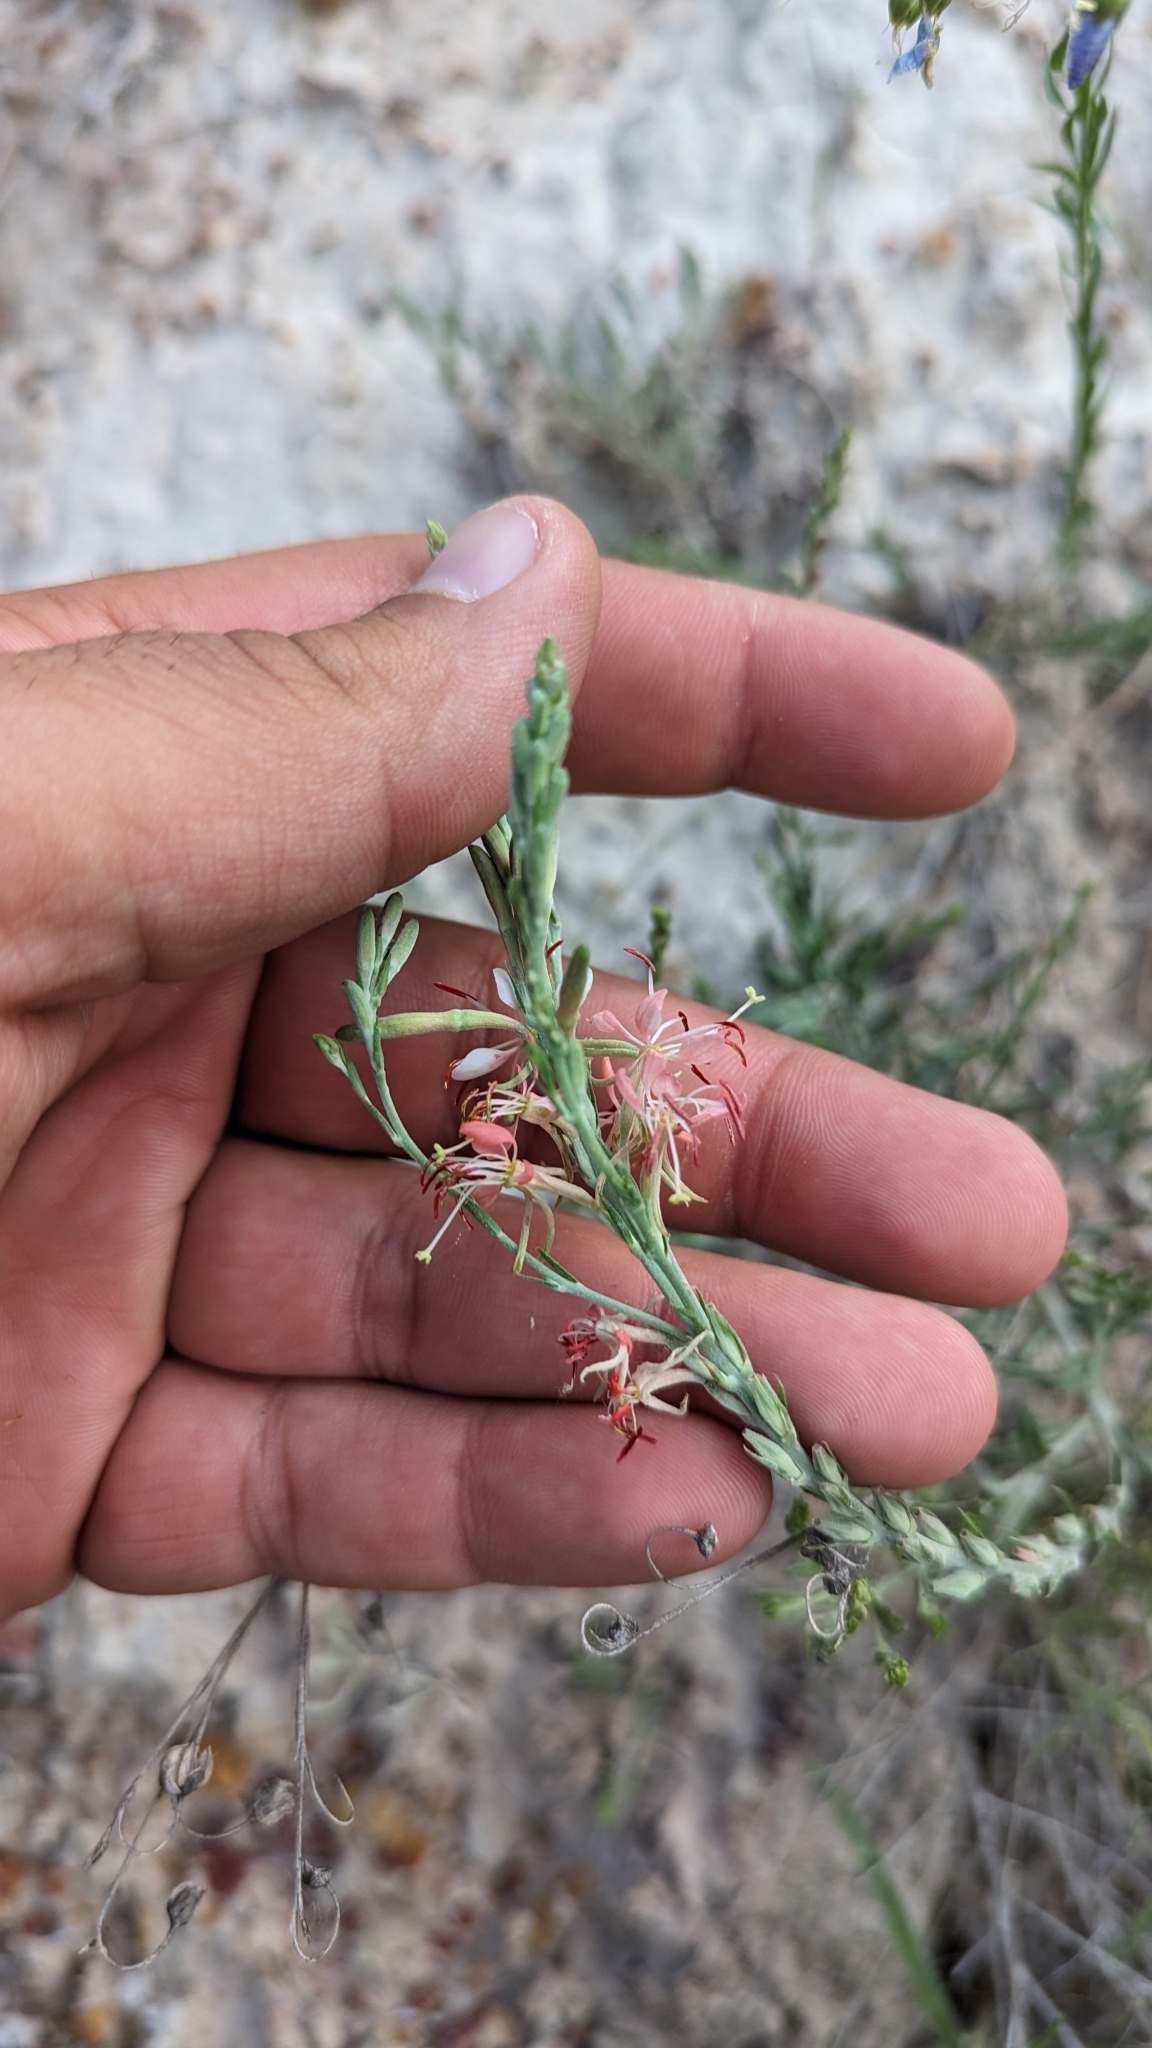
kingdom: Plantae
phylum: Tracheophyta
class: Magnoliopsida
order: Myrtales
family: Onagraceae
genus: Oenothera
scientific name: Oenothera suffrutescens
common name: Scarlet beeblossom
